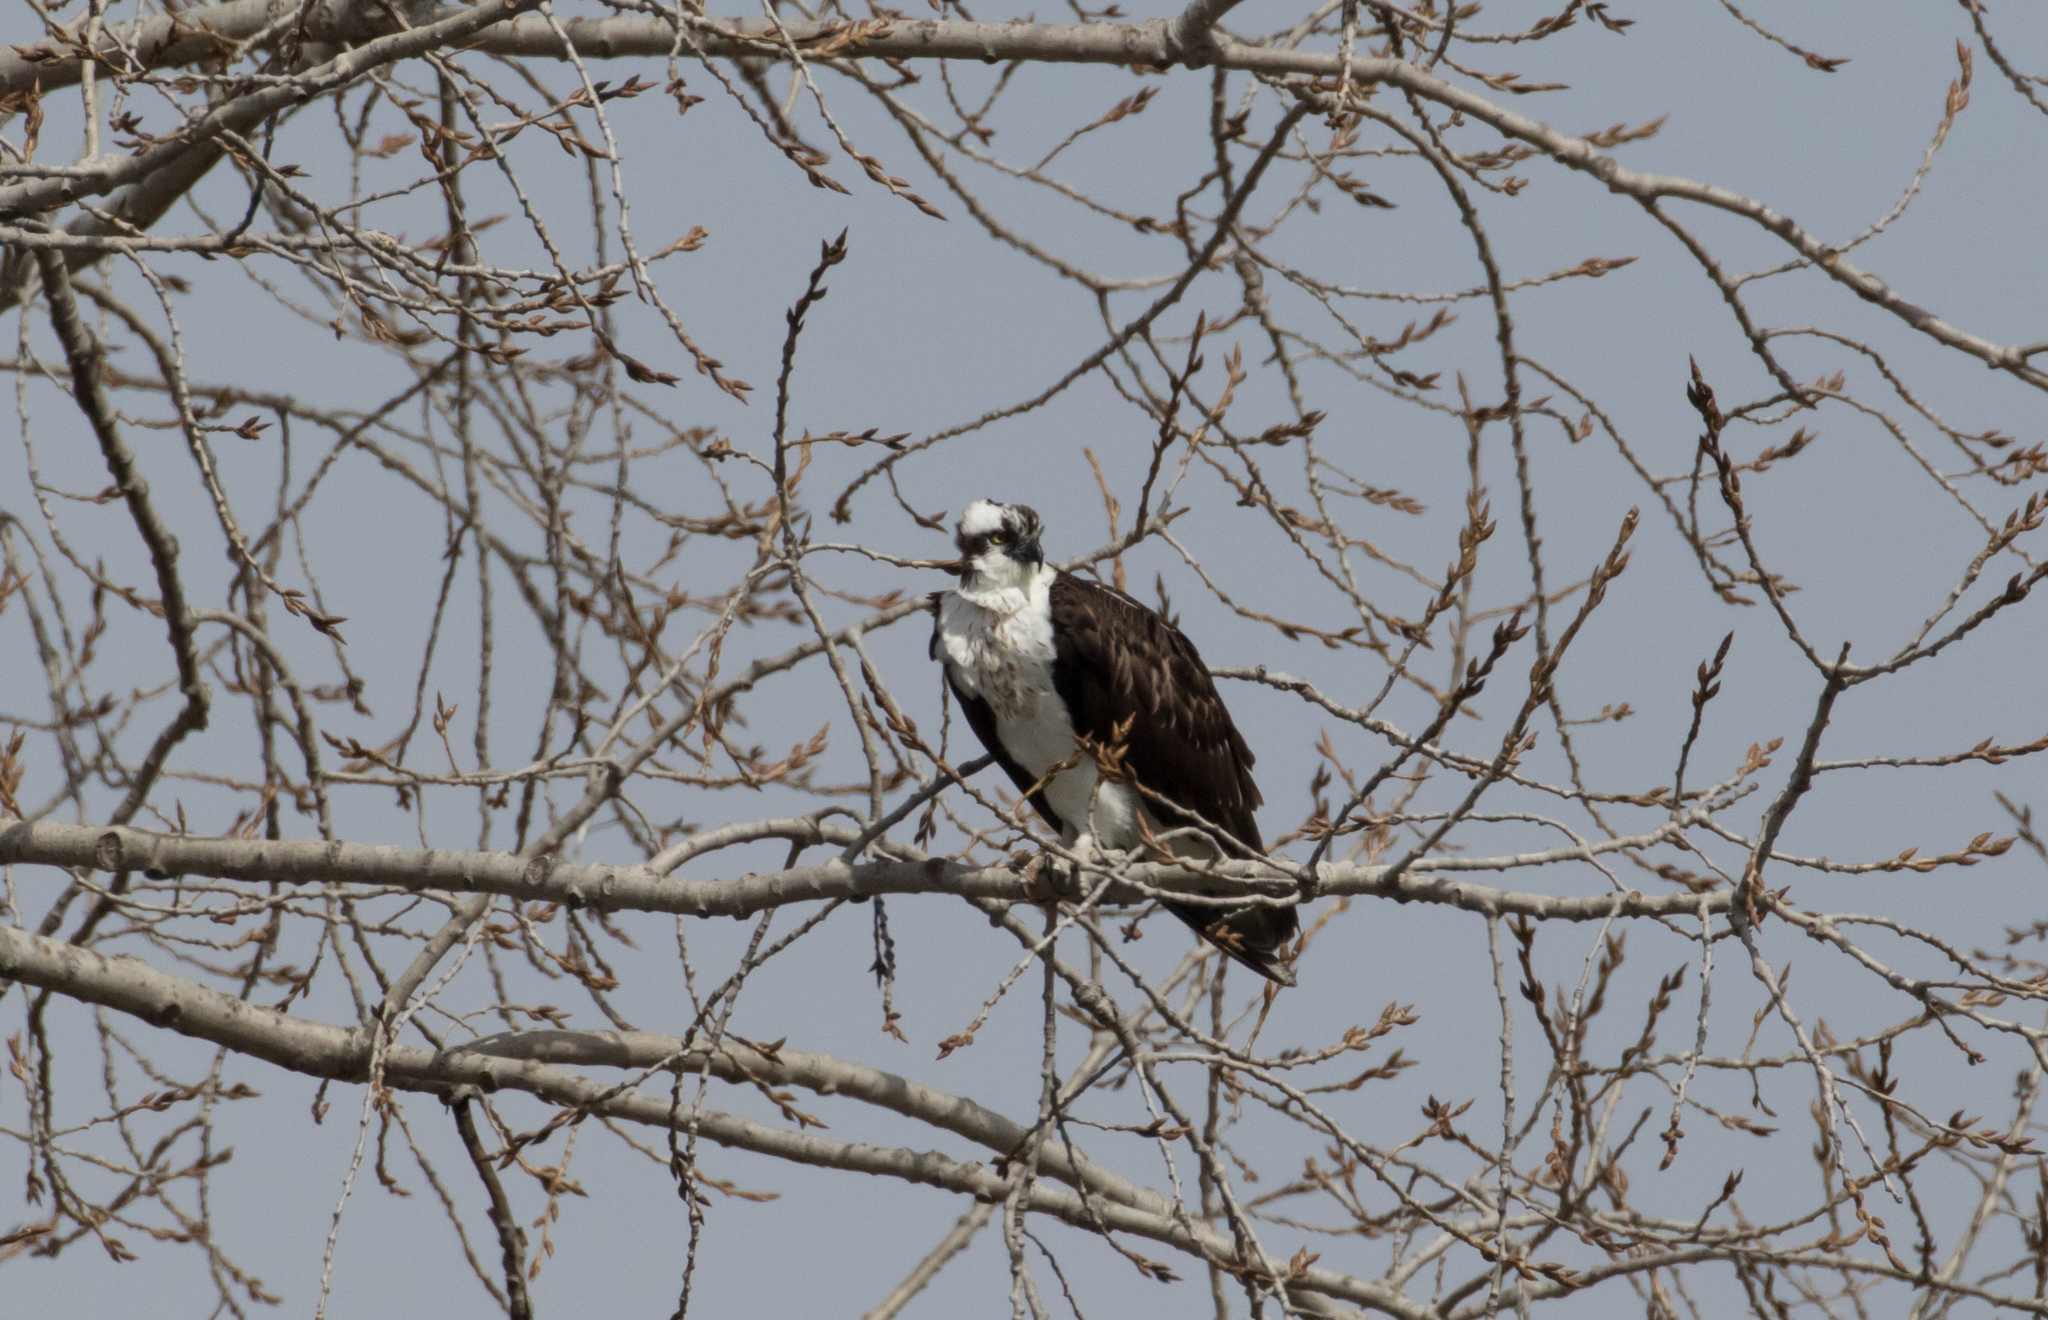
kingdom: Animalia
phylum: Chordata
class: Aves
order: Accipitriformes
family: Pandionidae
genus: Pandion
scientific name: Pandion haliaetus
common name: Osprey
